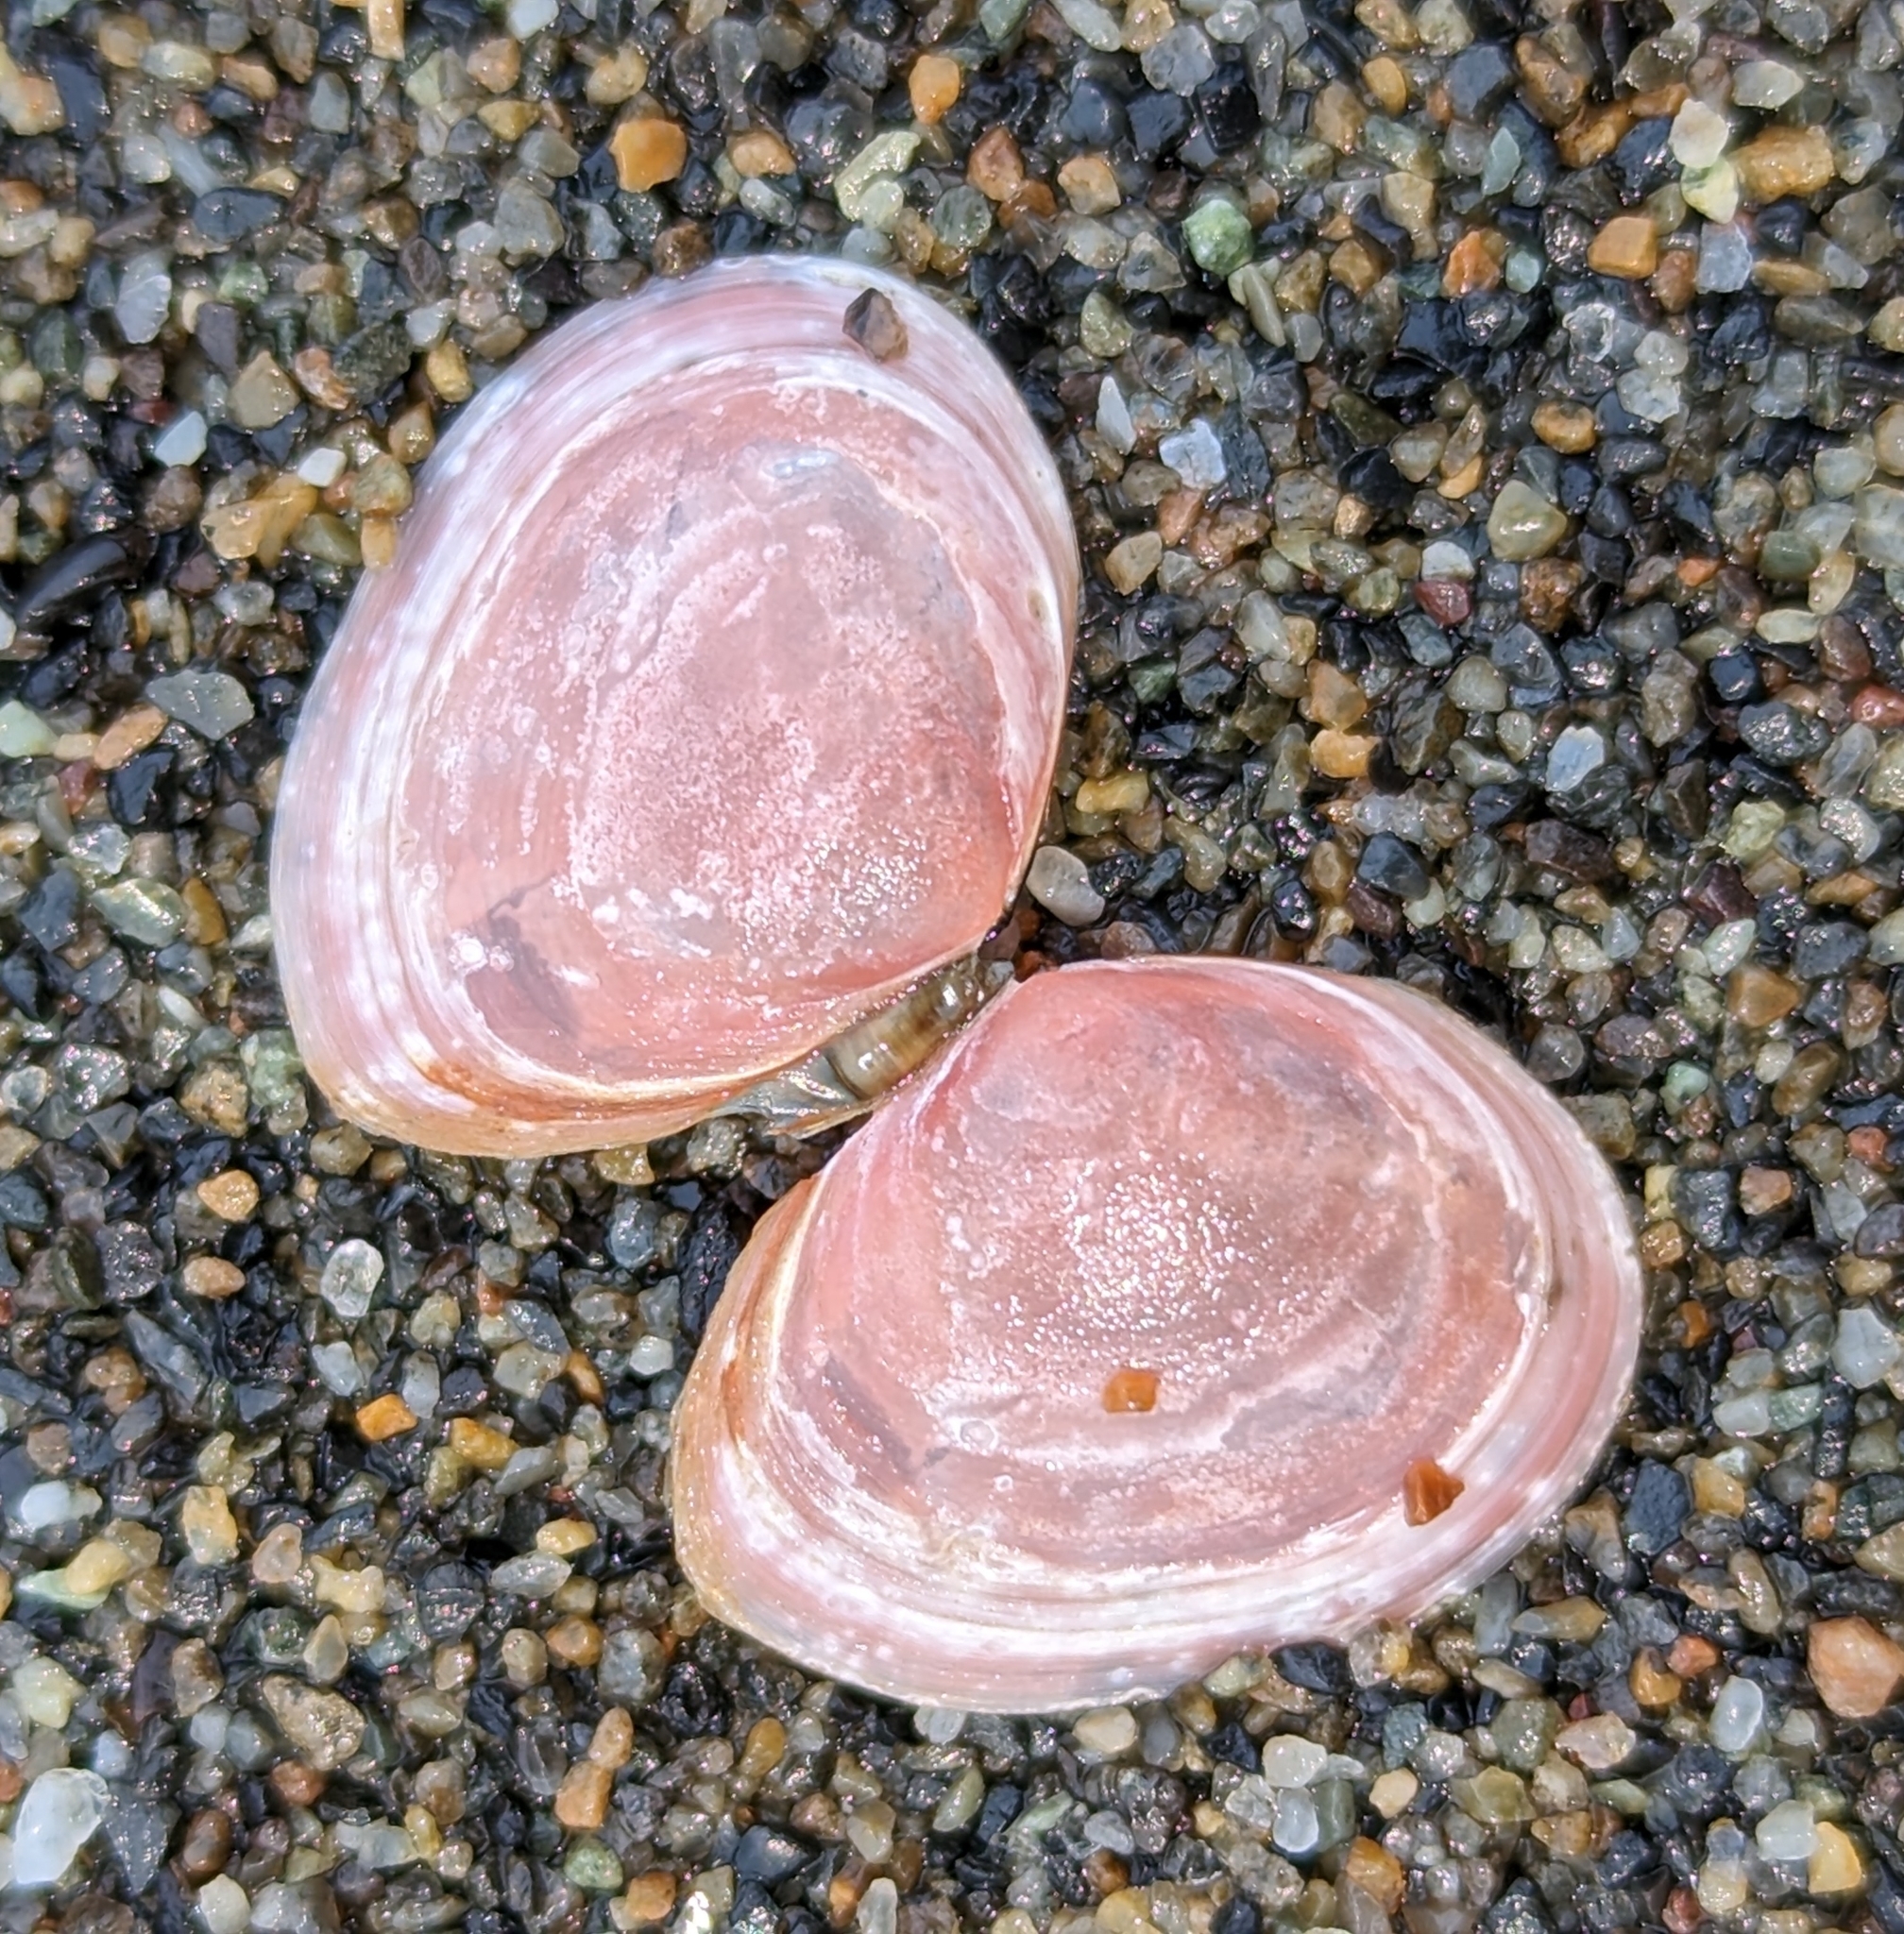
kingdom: Animalia
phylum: Mollusca
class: Bivalvia
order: Cardiida
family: Tellinidae
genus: Macoma
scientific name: Macoma balthica
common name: Baltic tellin
